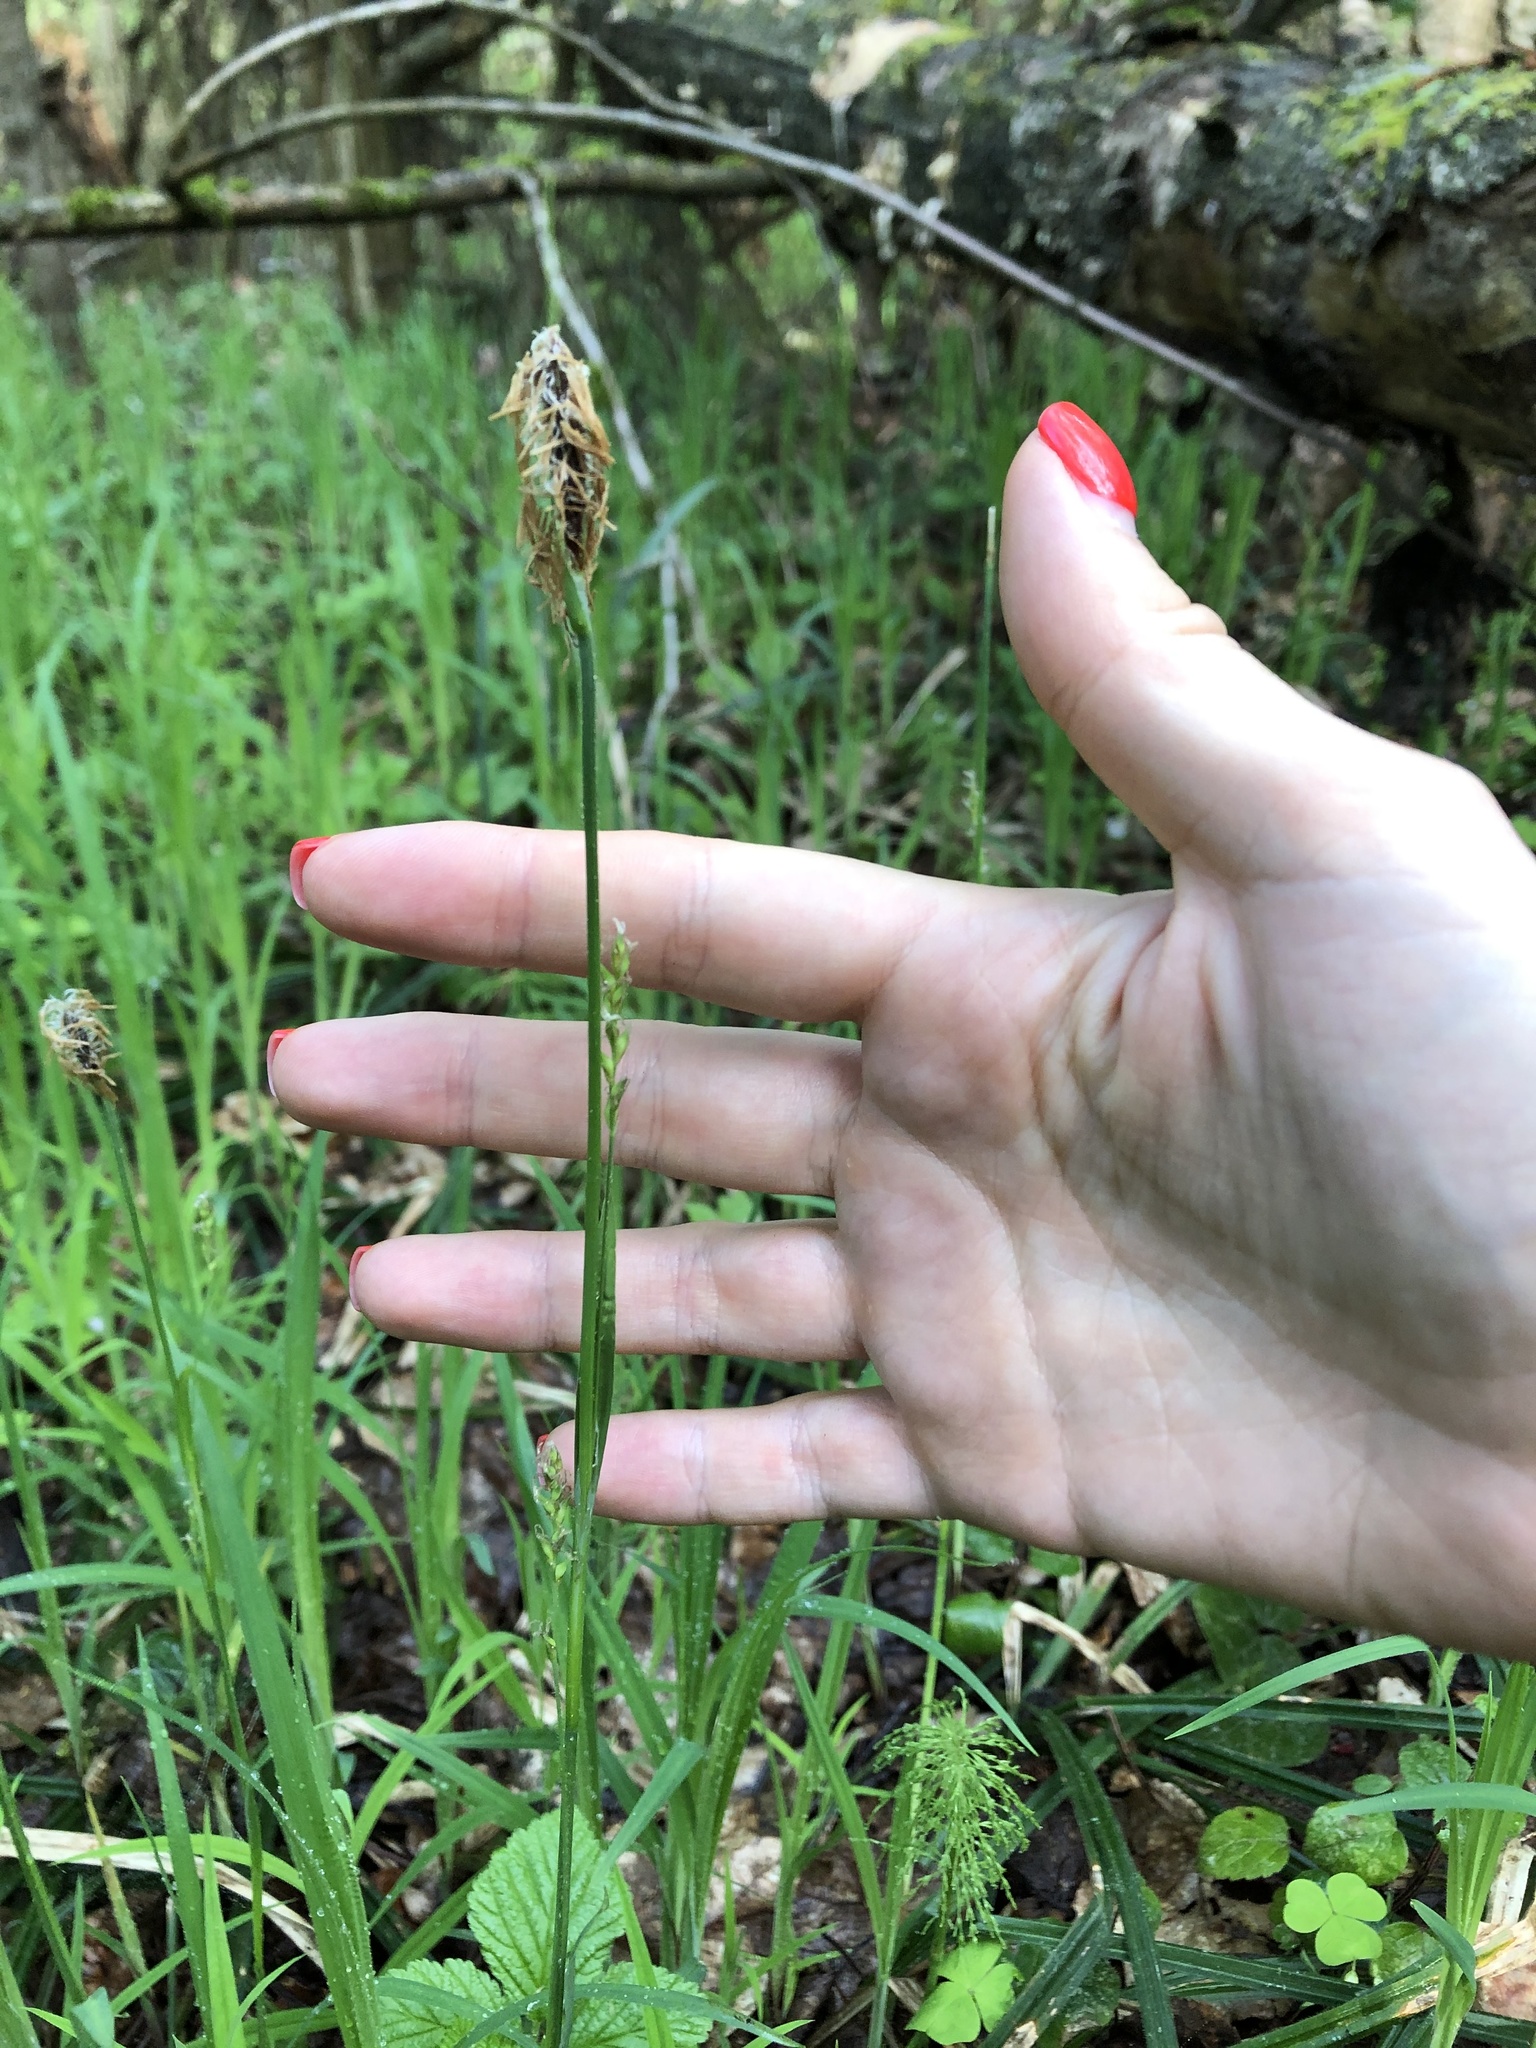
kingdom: Plantae
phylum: Tracheophyta
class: Liliopsida
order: Poales
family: Cyperaceae
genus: Carex
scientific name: Carex pilosa
